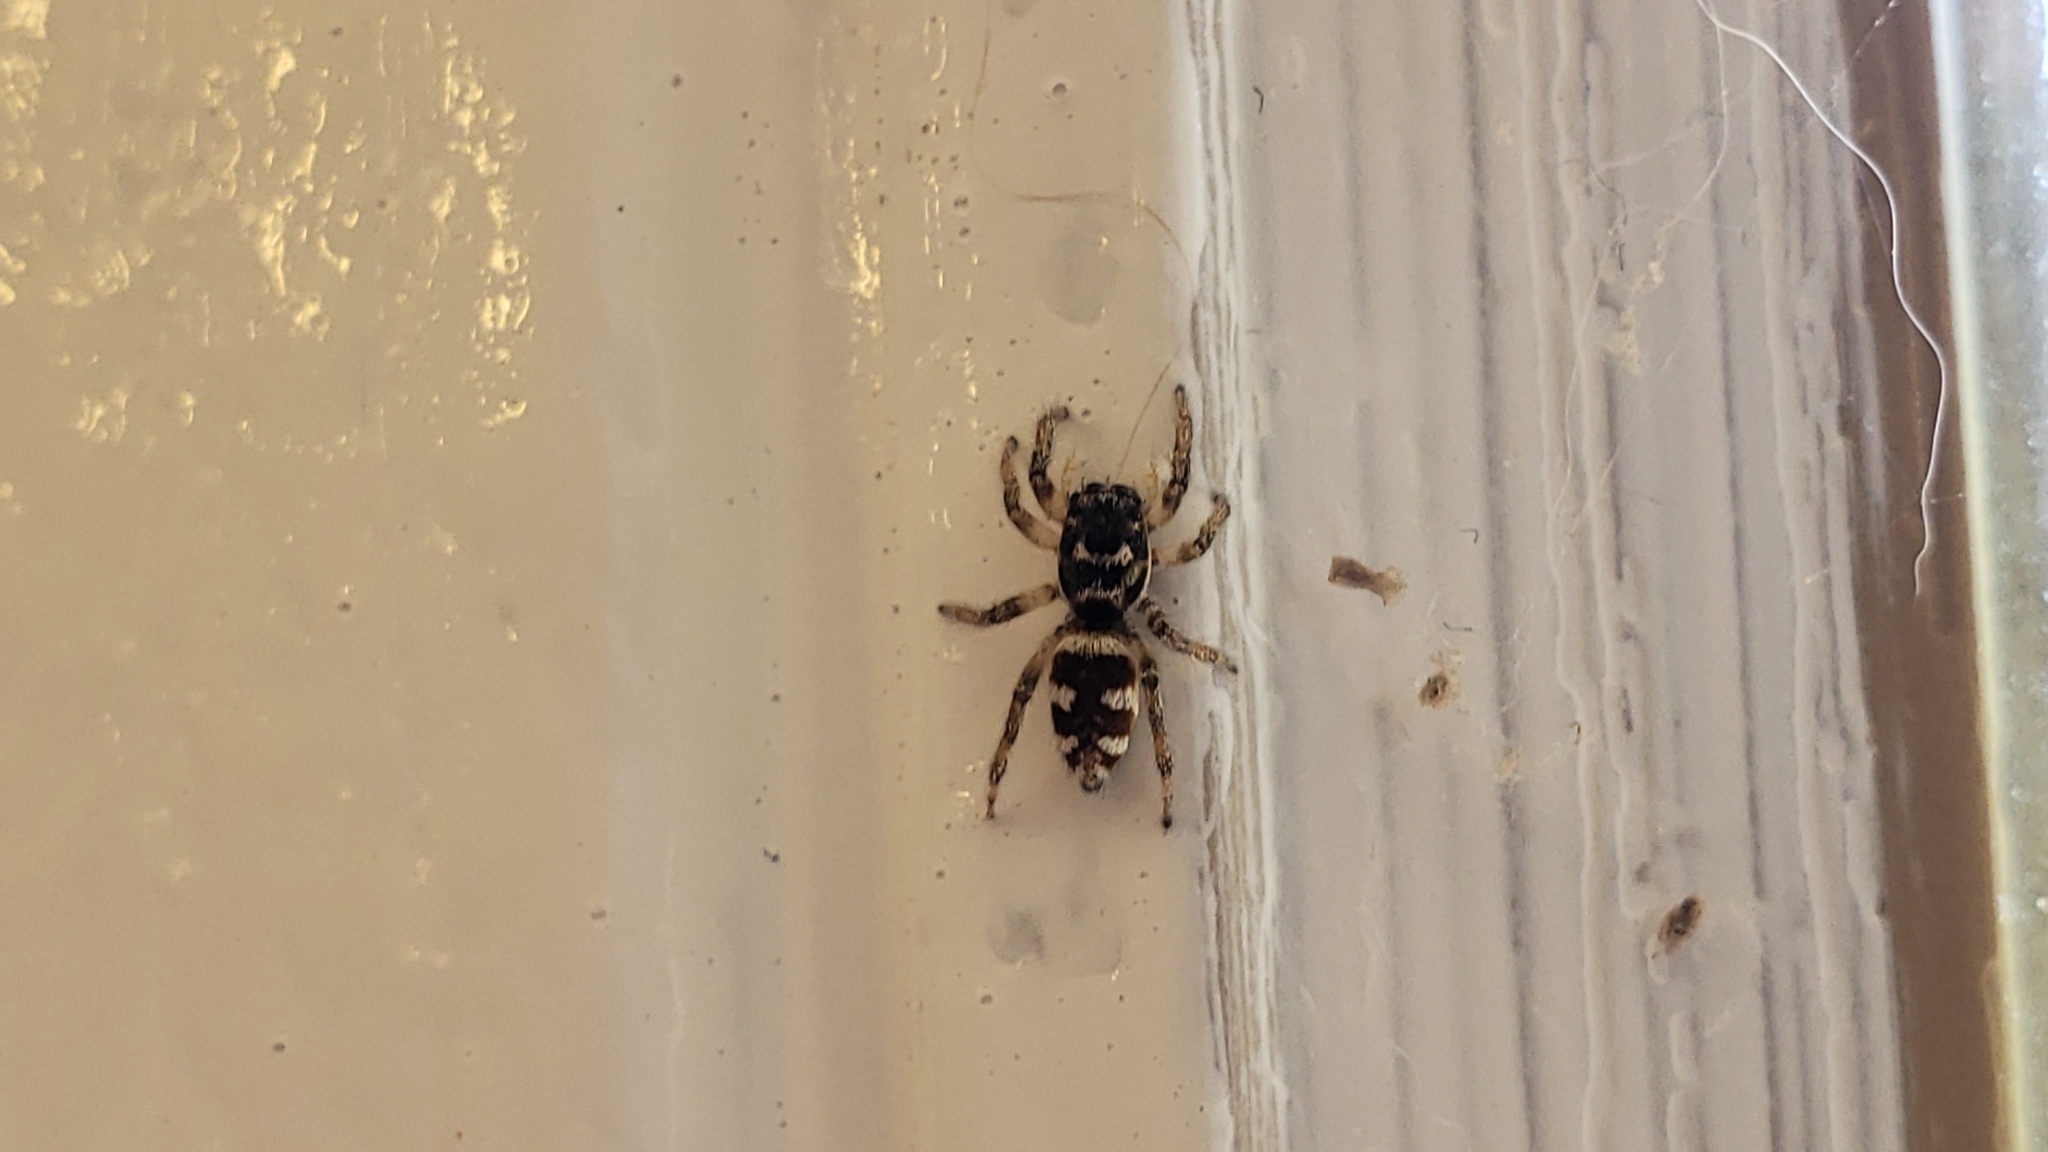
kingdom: Animalia
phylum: Arthropoda
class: Arachnida
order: Araneae
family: Salticidae
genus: Salticus
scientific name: Salticus scenicus
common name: Zebra jumper
